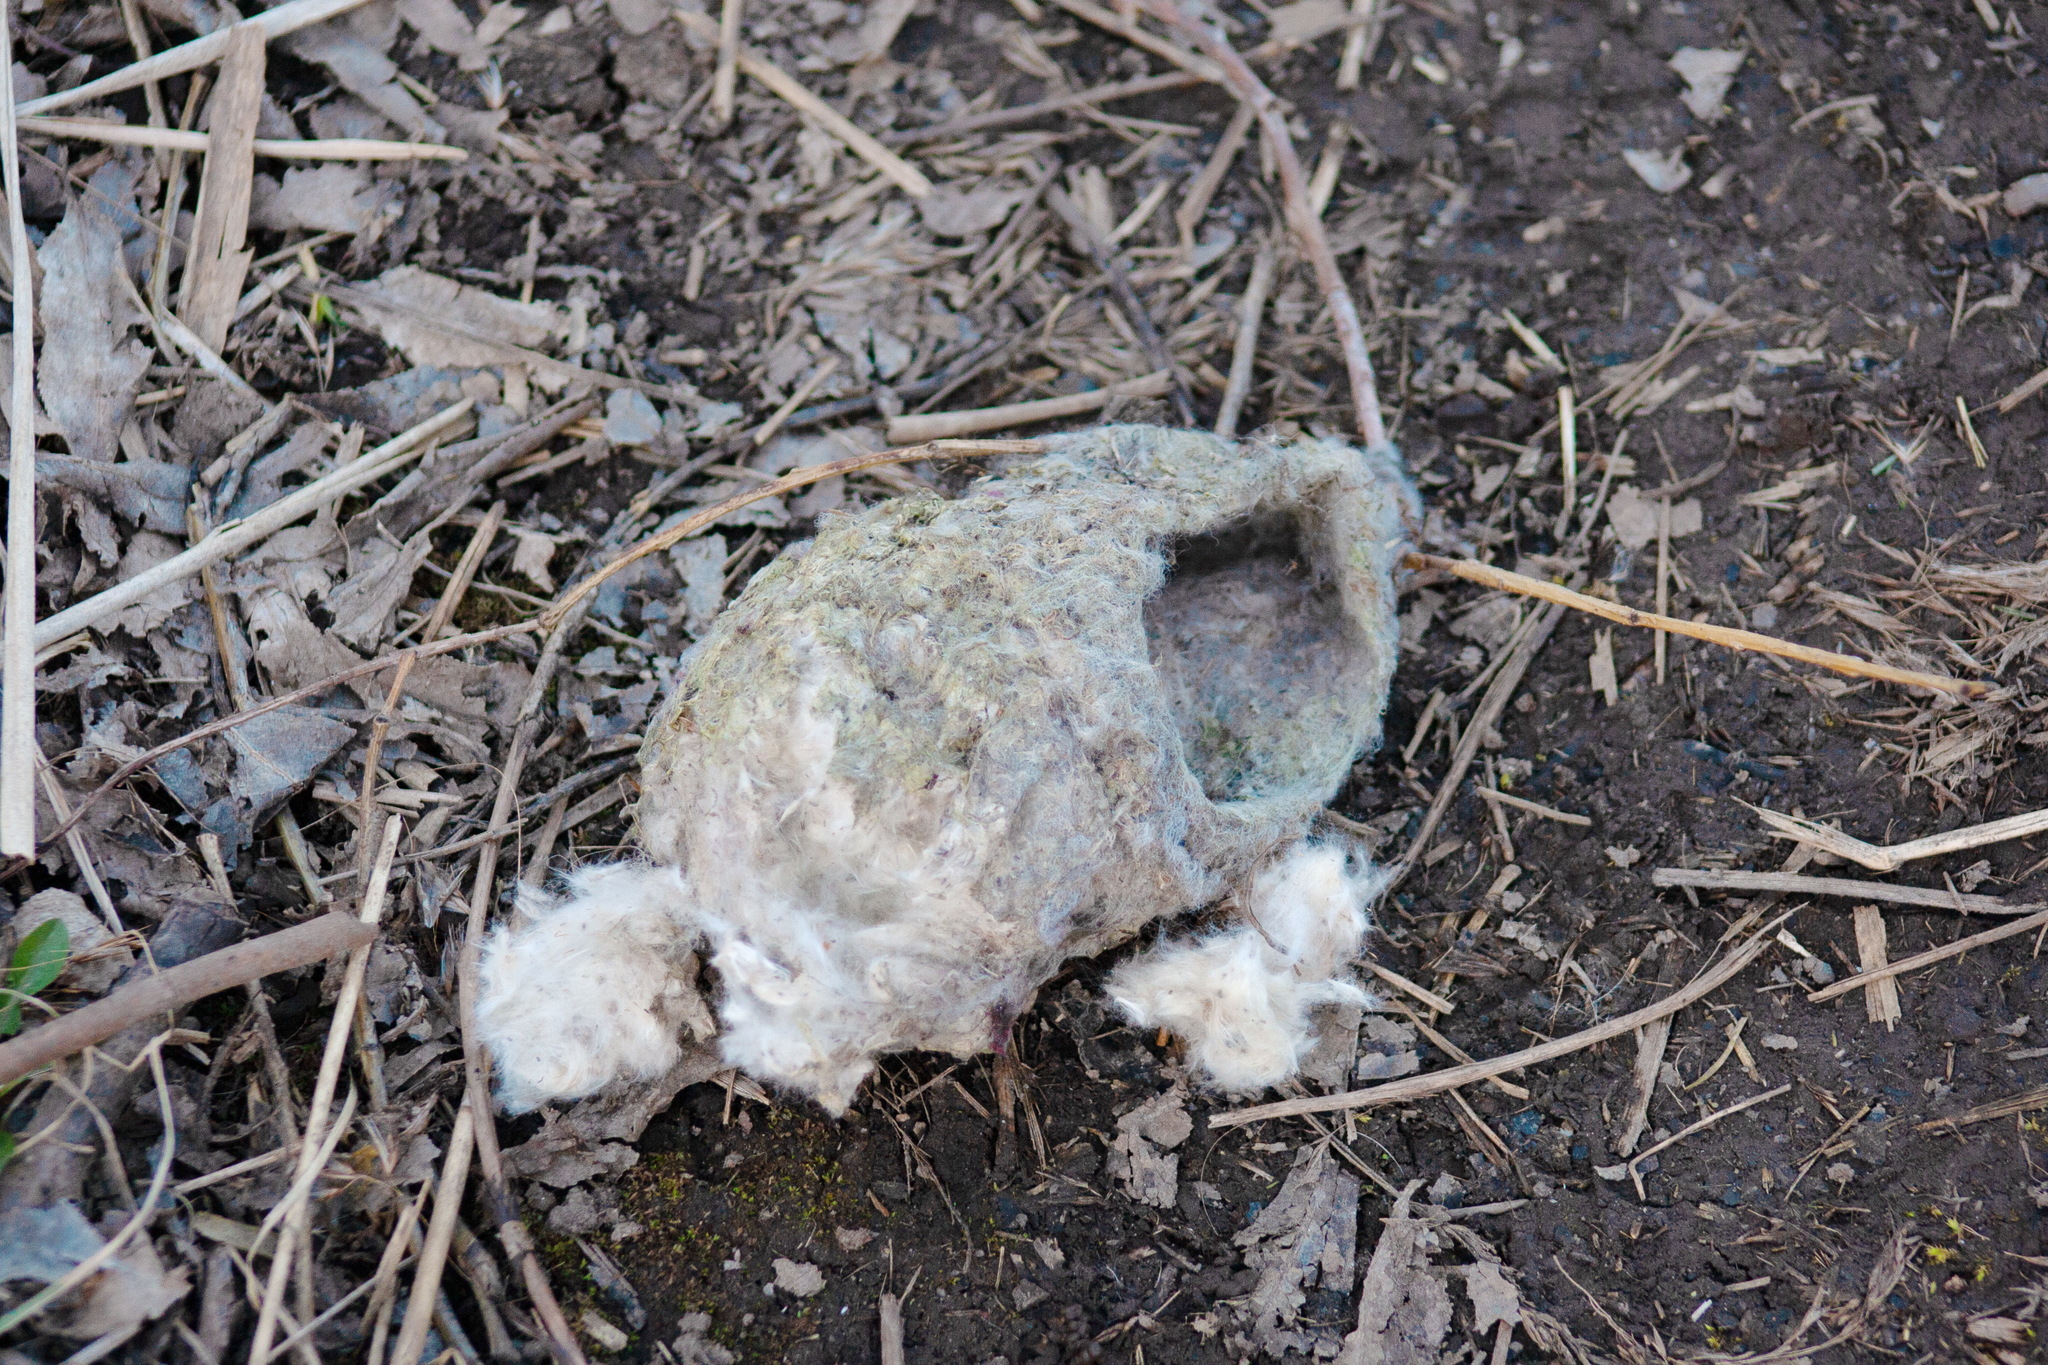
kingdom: Animalia
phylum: Chordata
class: Aves
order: Passeriformes
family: Remizidae
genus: Remiz
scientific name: Remiz pendulinus
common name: Eurasian penduline tit
